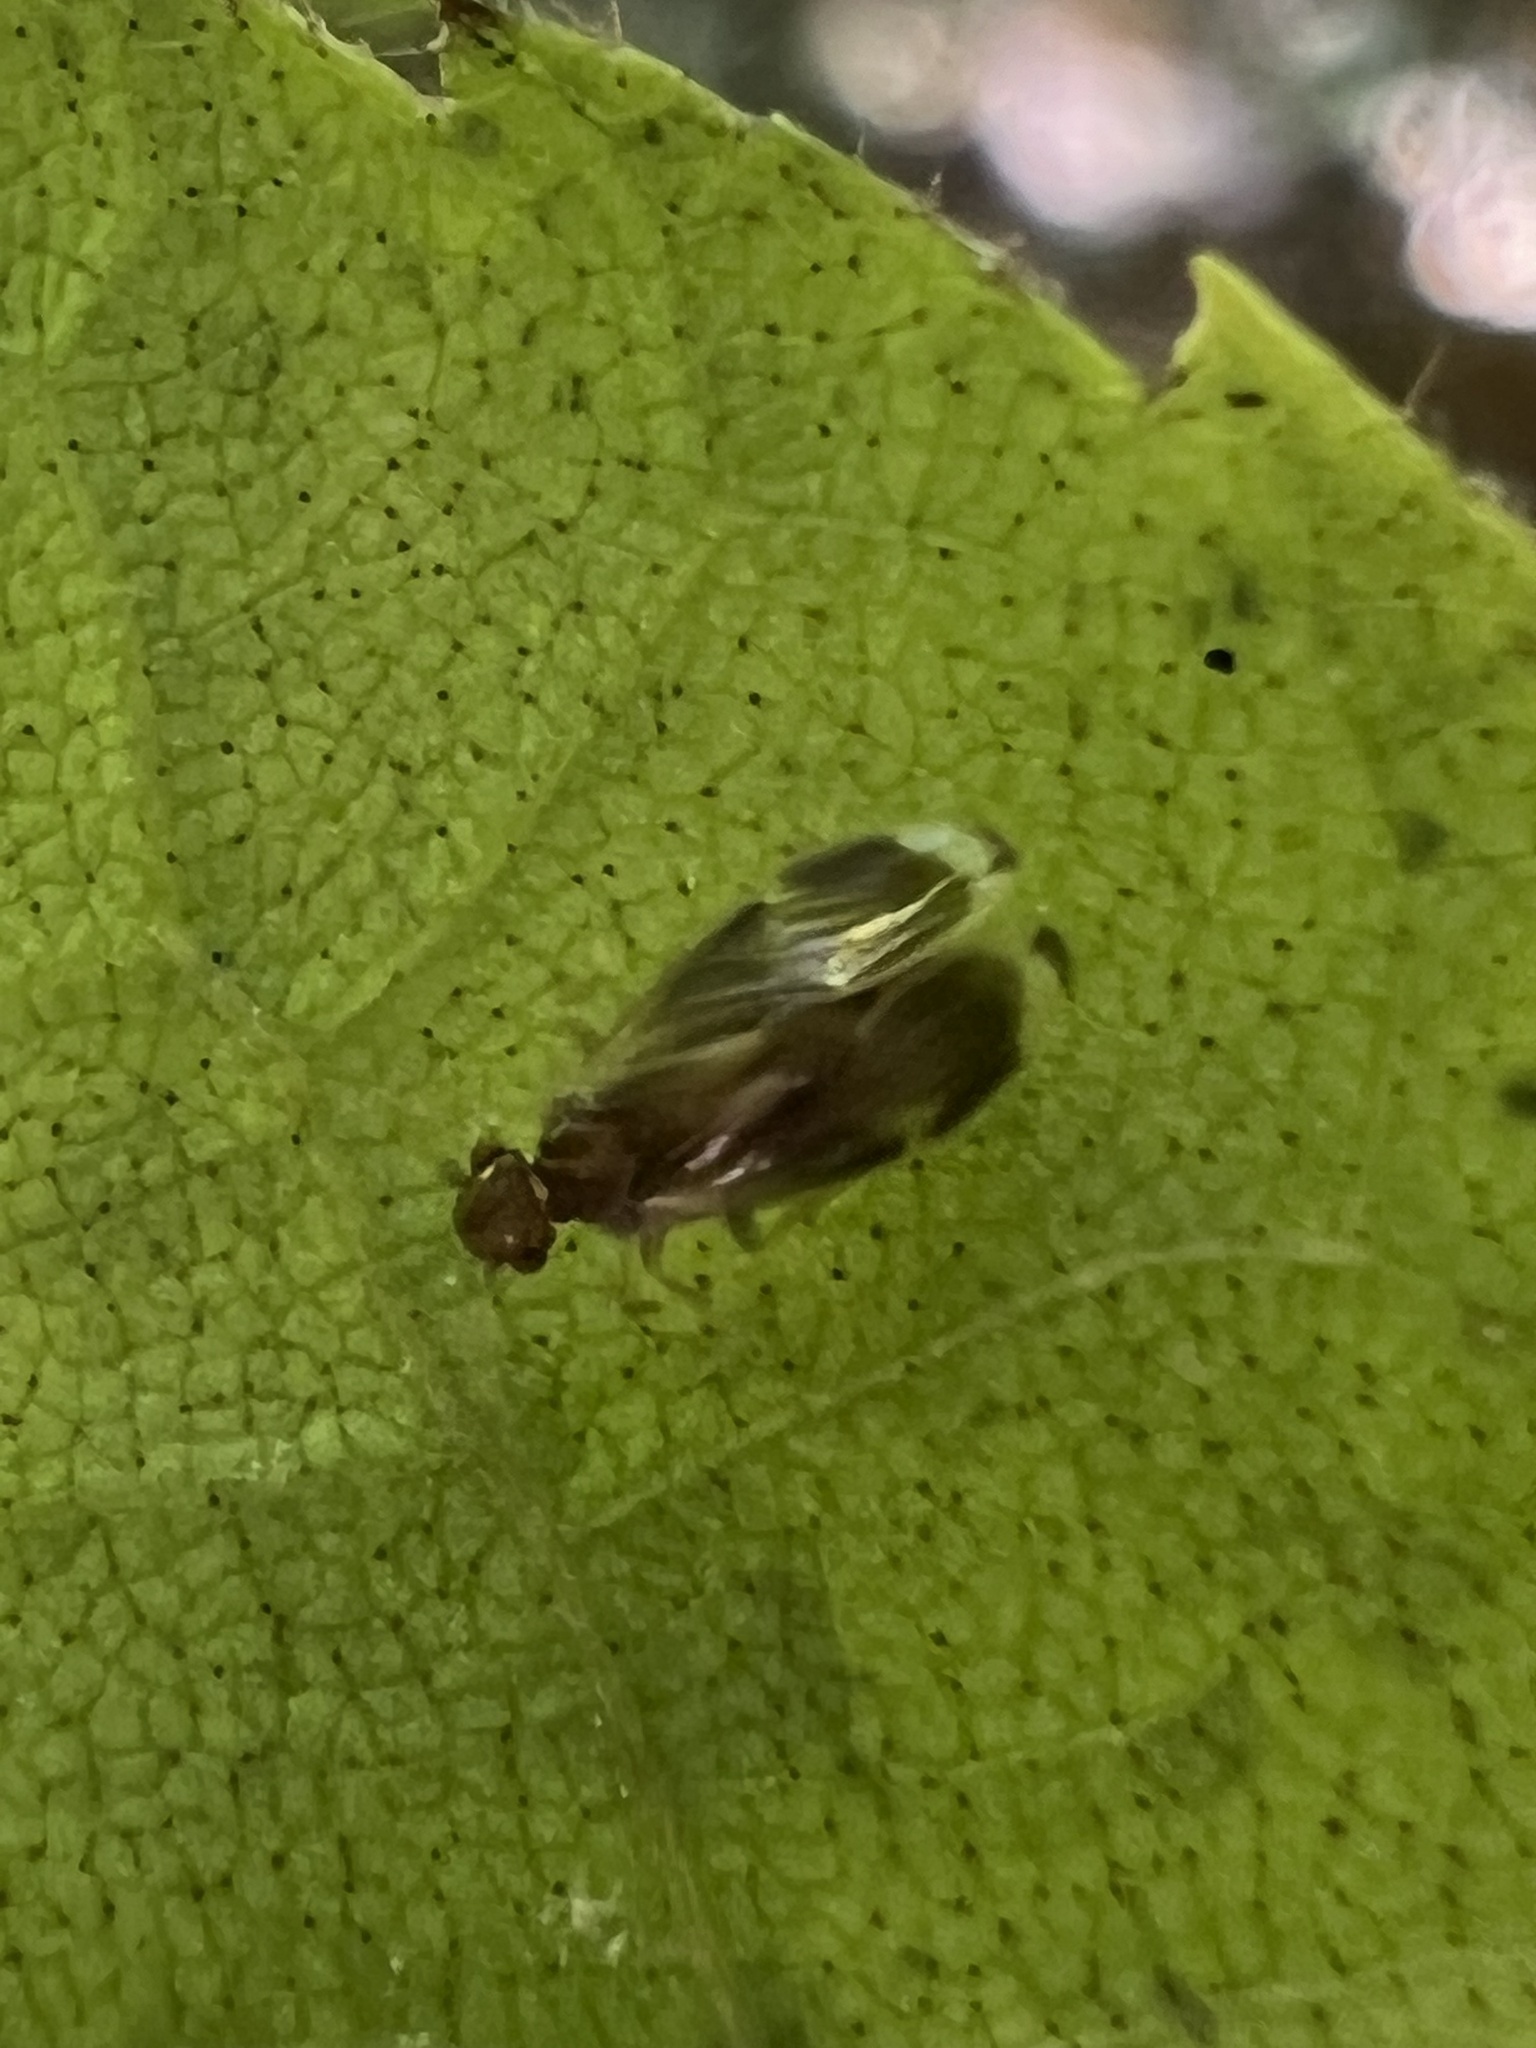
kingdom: Animalia
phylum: Arthropoda
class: Insecta
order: Psocodea
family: Amphipsocidae
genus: Polypsocus
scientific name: Polypsocus corruptus
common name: Corrupt barklouse
